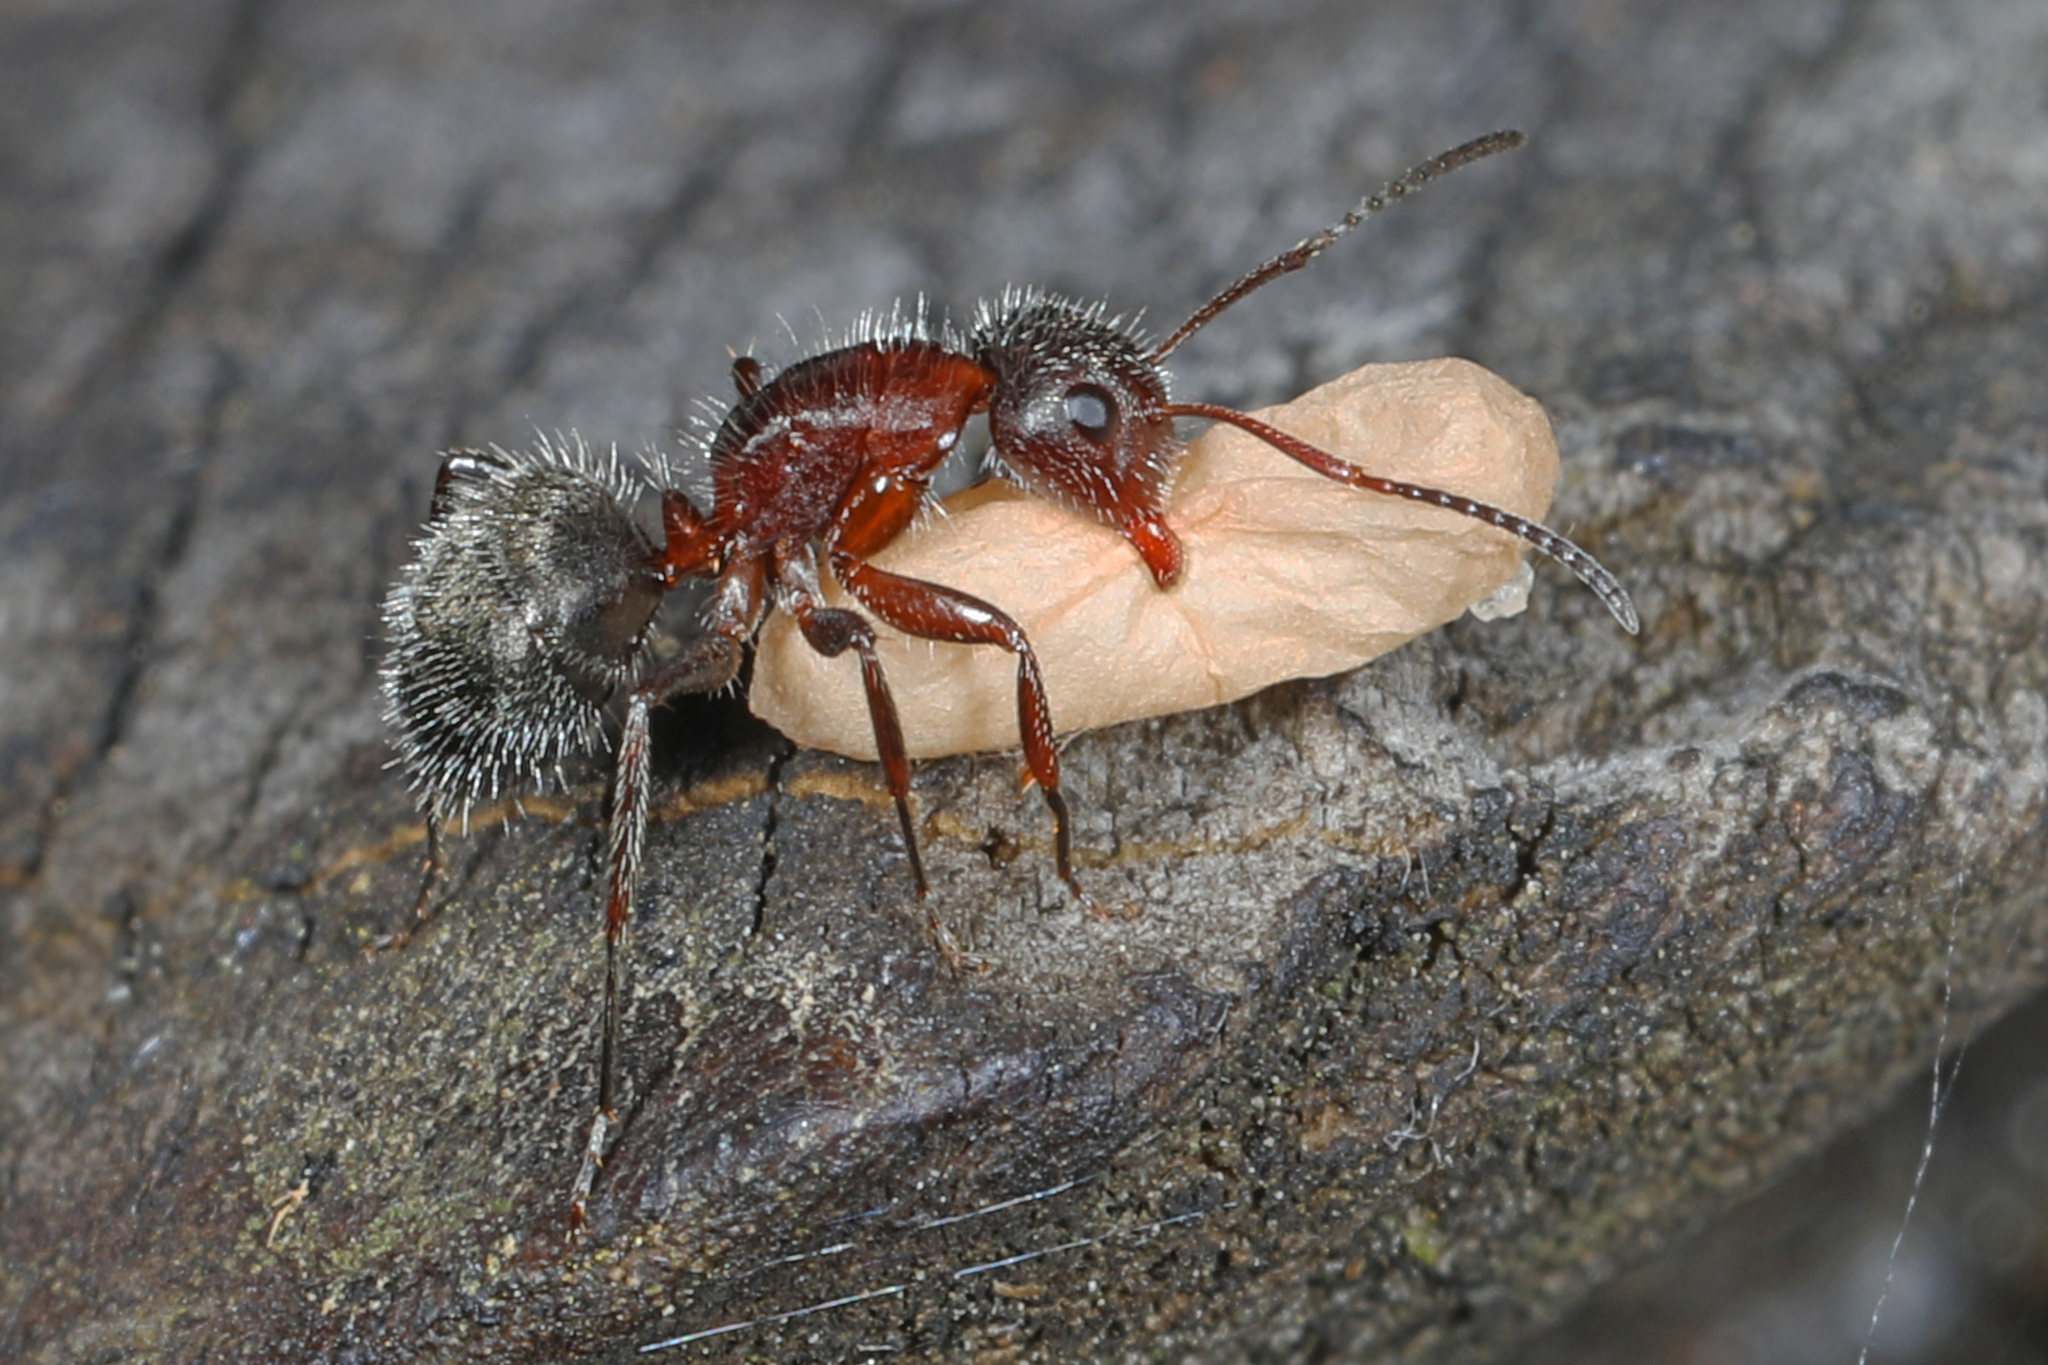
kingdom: Animalia
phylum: Arthropoda
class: Insecta
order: Hymenoptera
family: Formicidae
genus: Camponotus
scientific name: Camponotus planatus
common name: Compact carpenter ant
